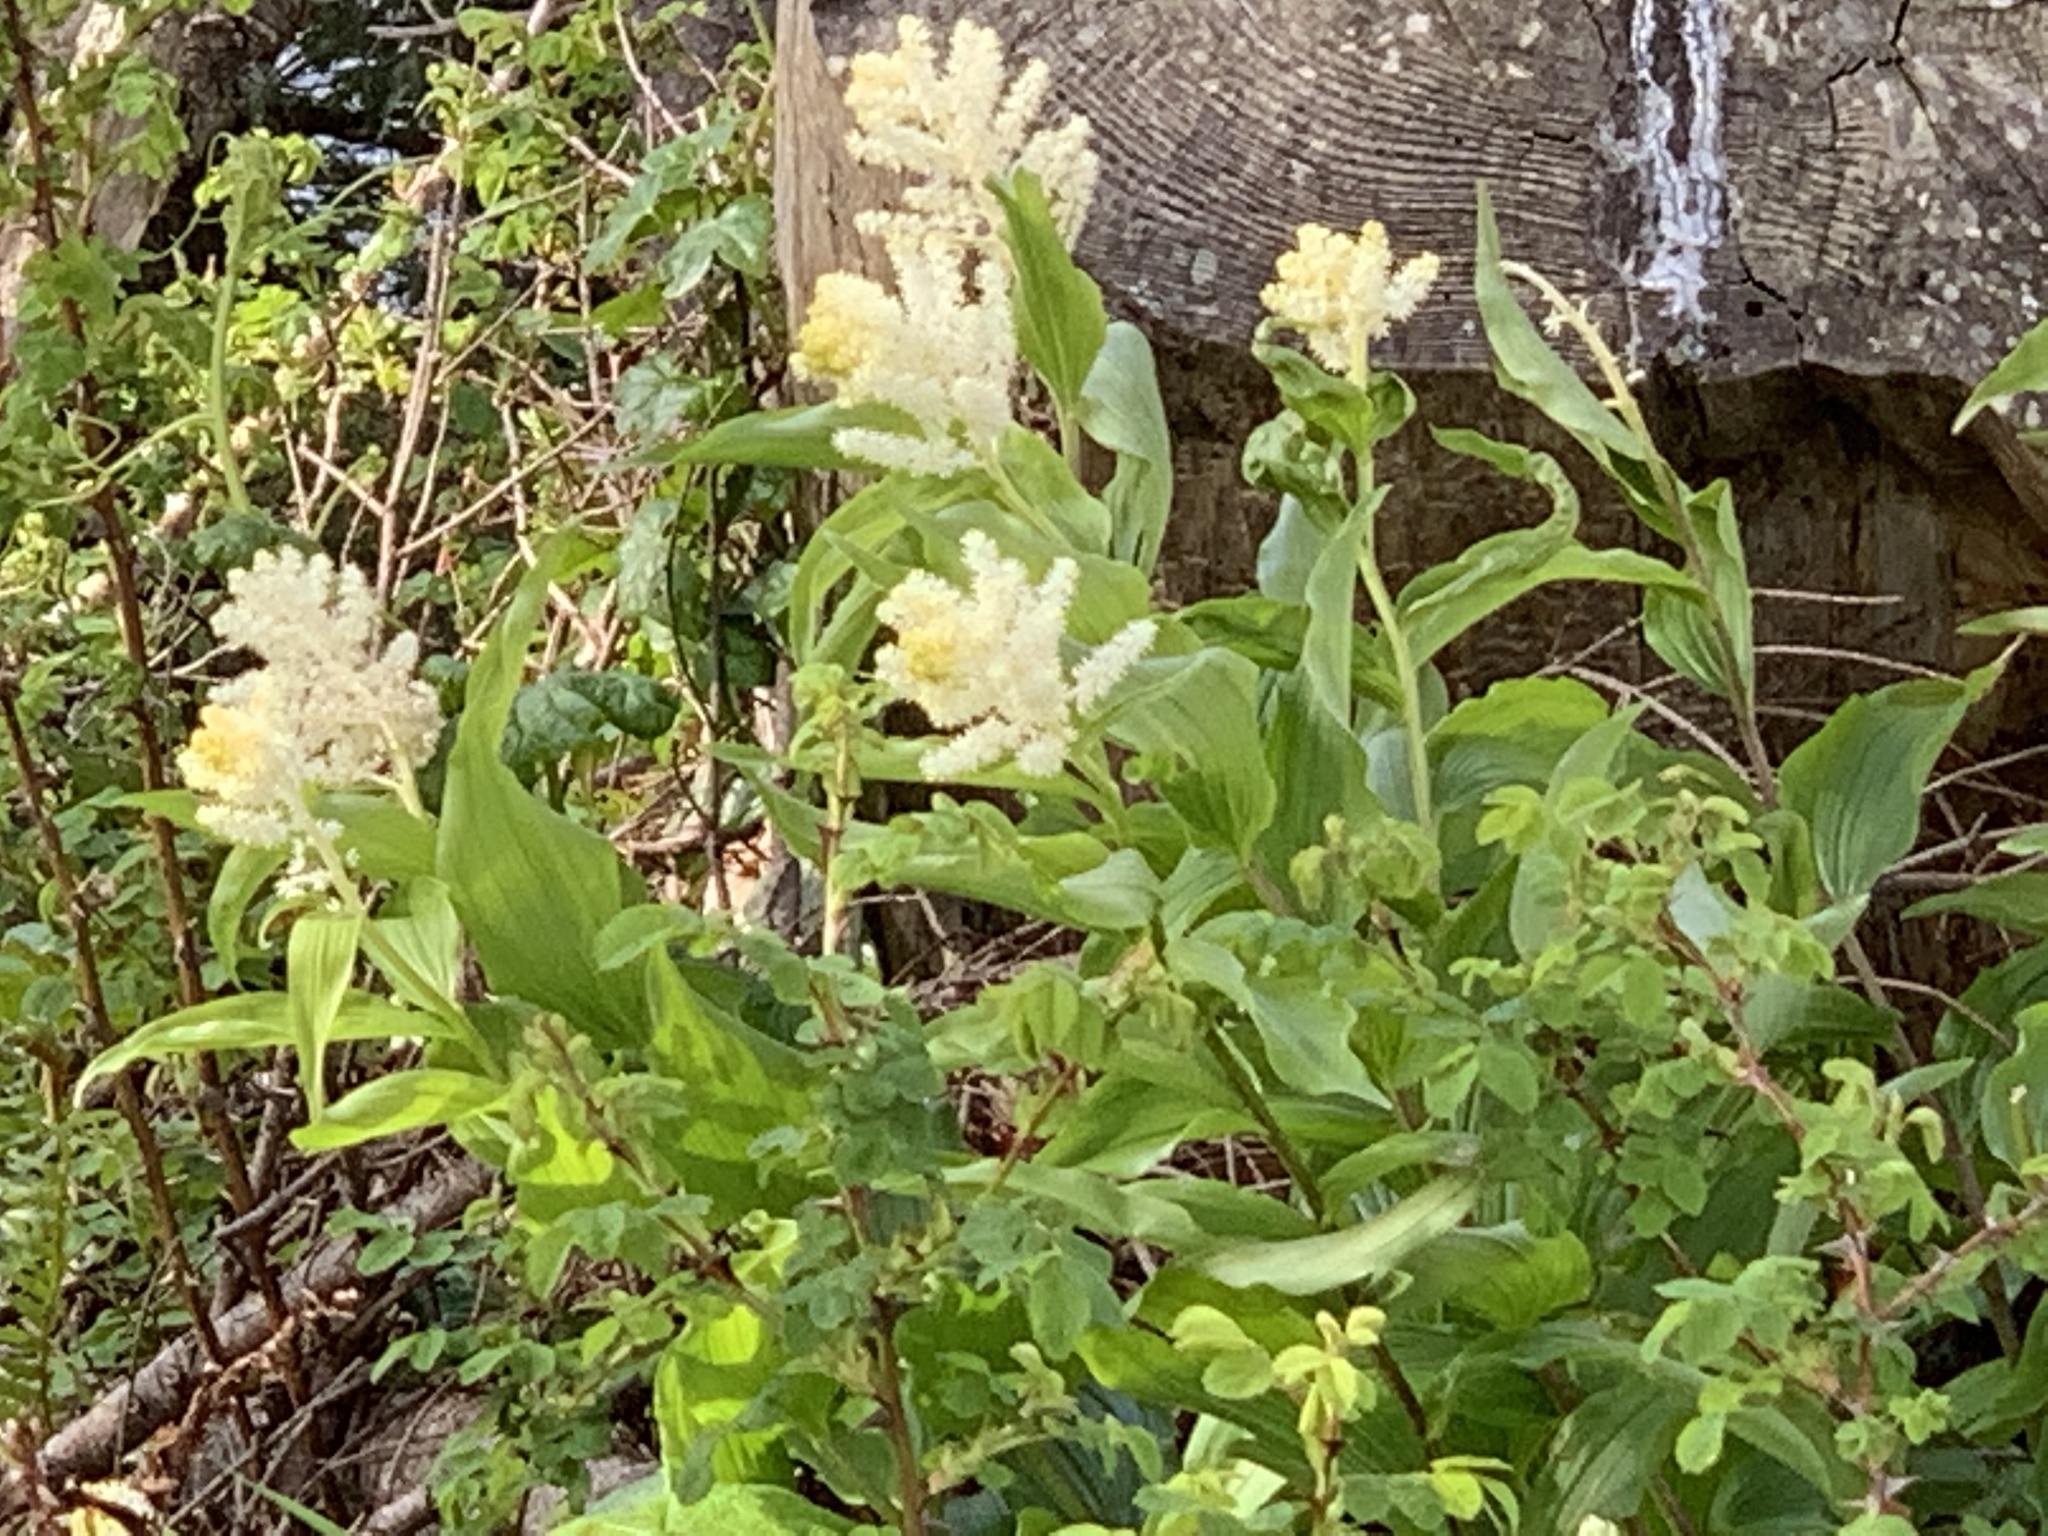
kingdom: Plantae
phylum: Tracheophyta
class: Liliopsida
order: Asparagales
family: Asparagaceae
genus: Maianthemum
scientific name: Maianthemum racemosum
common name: False spikenard
